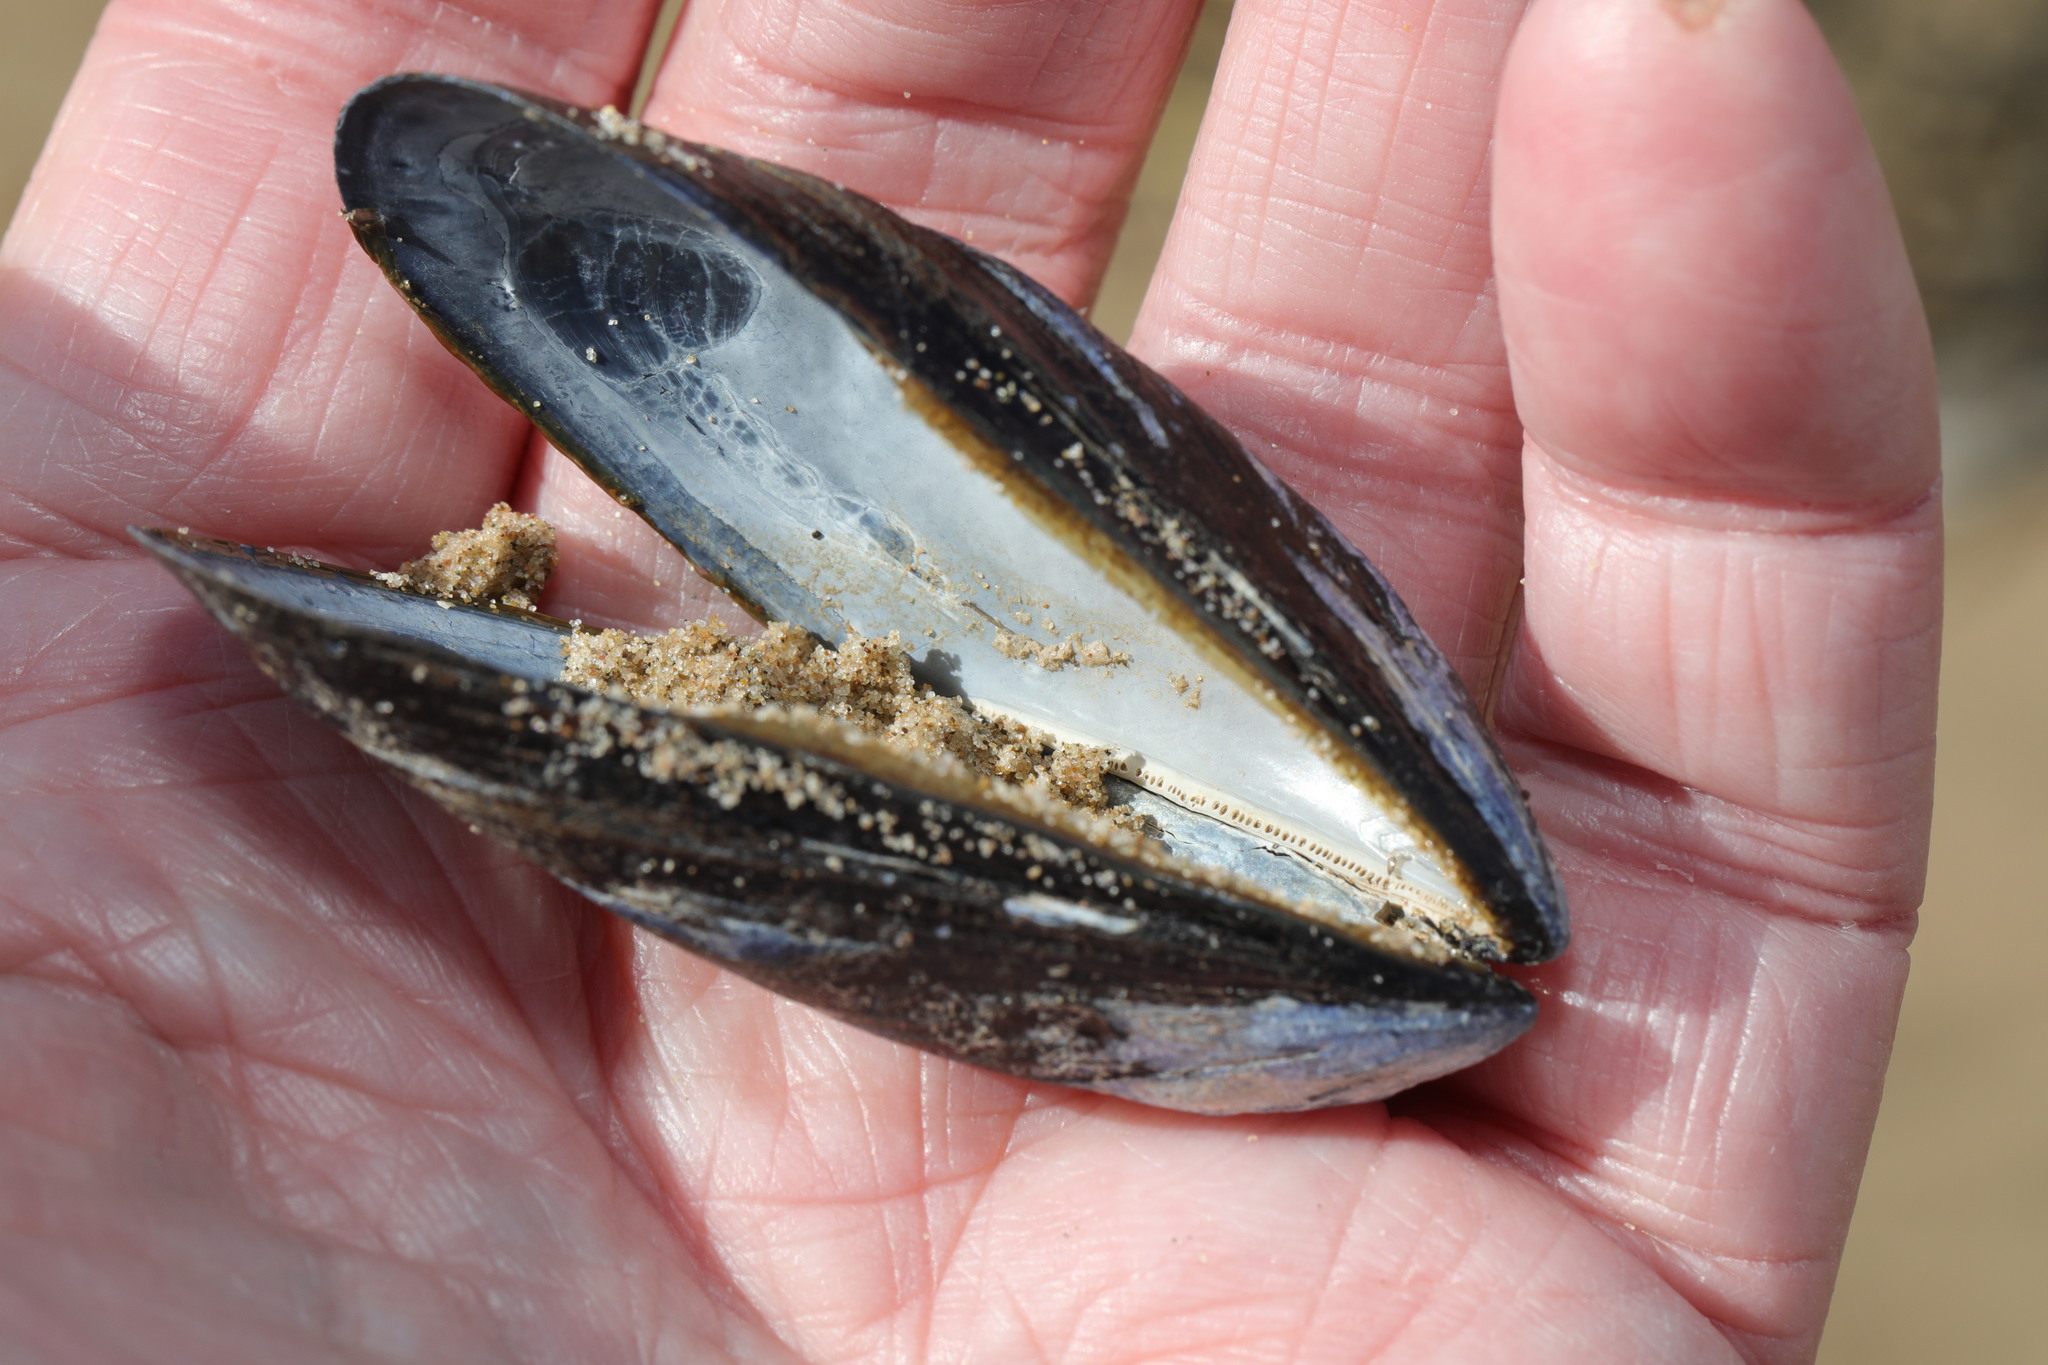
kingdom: Animalia
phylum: Mollusca
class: Bivalvia
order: Mytilida
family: Mytilidae
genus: Mytilus
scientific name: Mytilus edulis
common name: Blue mussel
